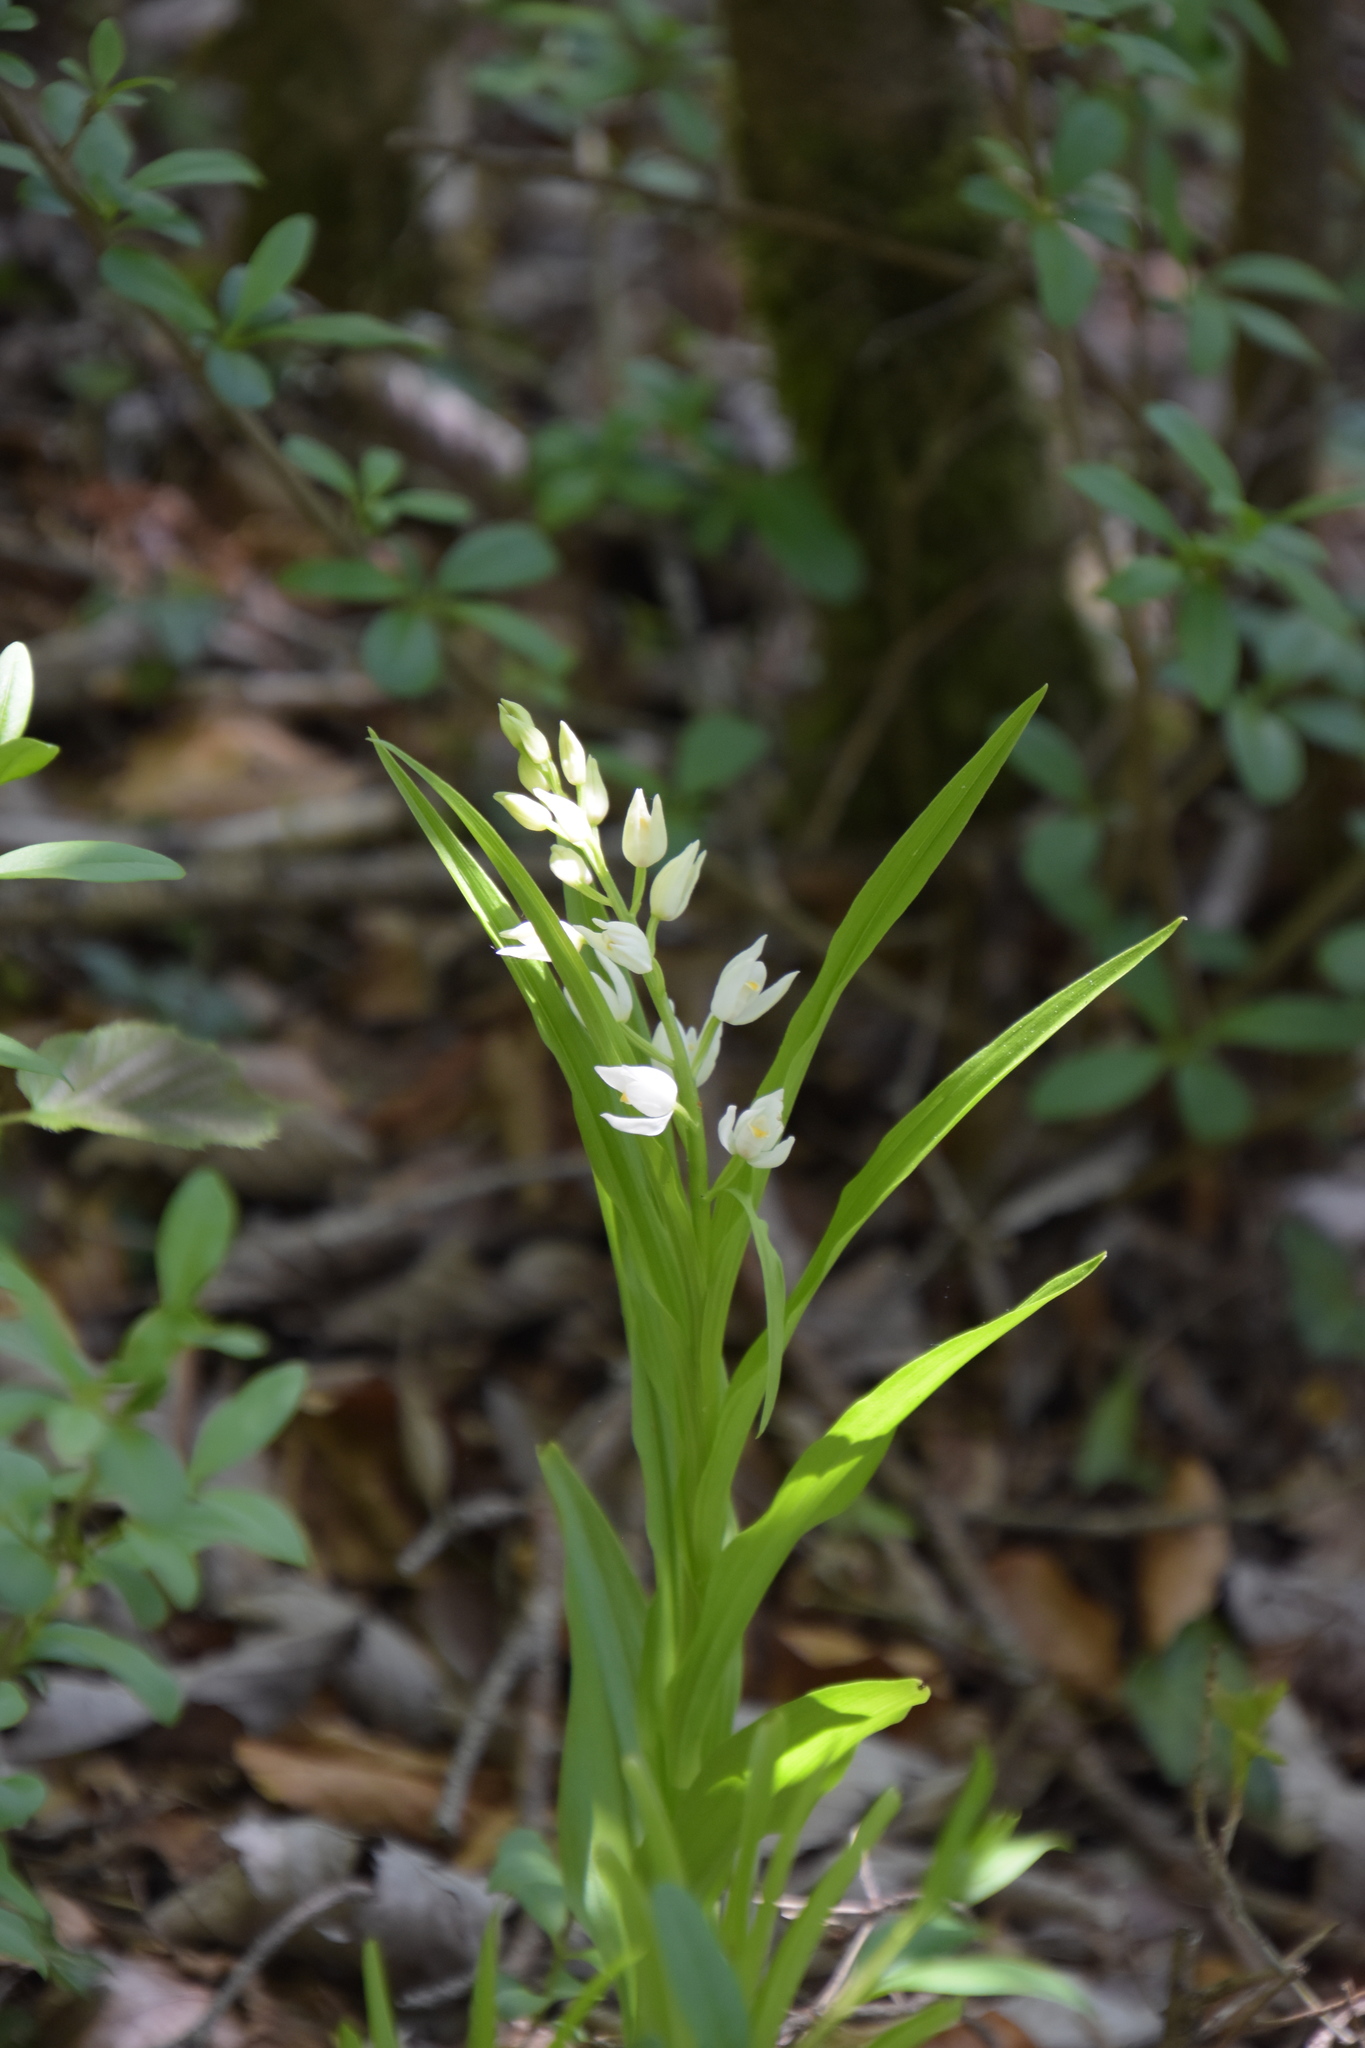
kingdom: Plantae
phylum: Tracheophyta
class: Liliopsida
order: Asparagales
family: Orchidaceae
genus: Cephalanthera
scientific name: Cephalanthera longifolia
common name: Narrow-leaved helleborine
